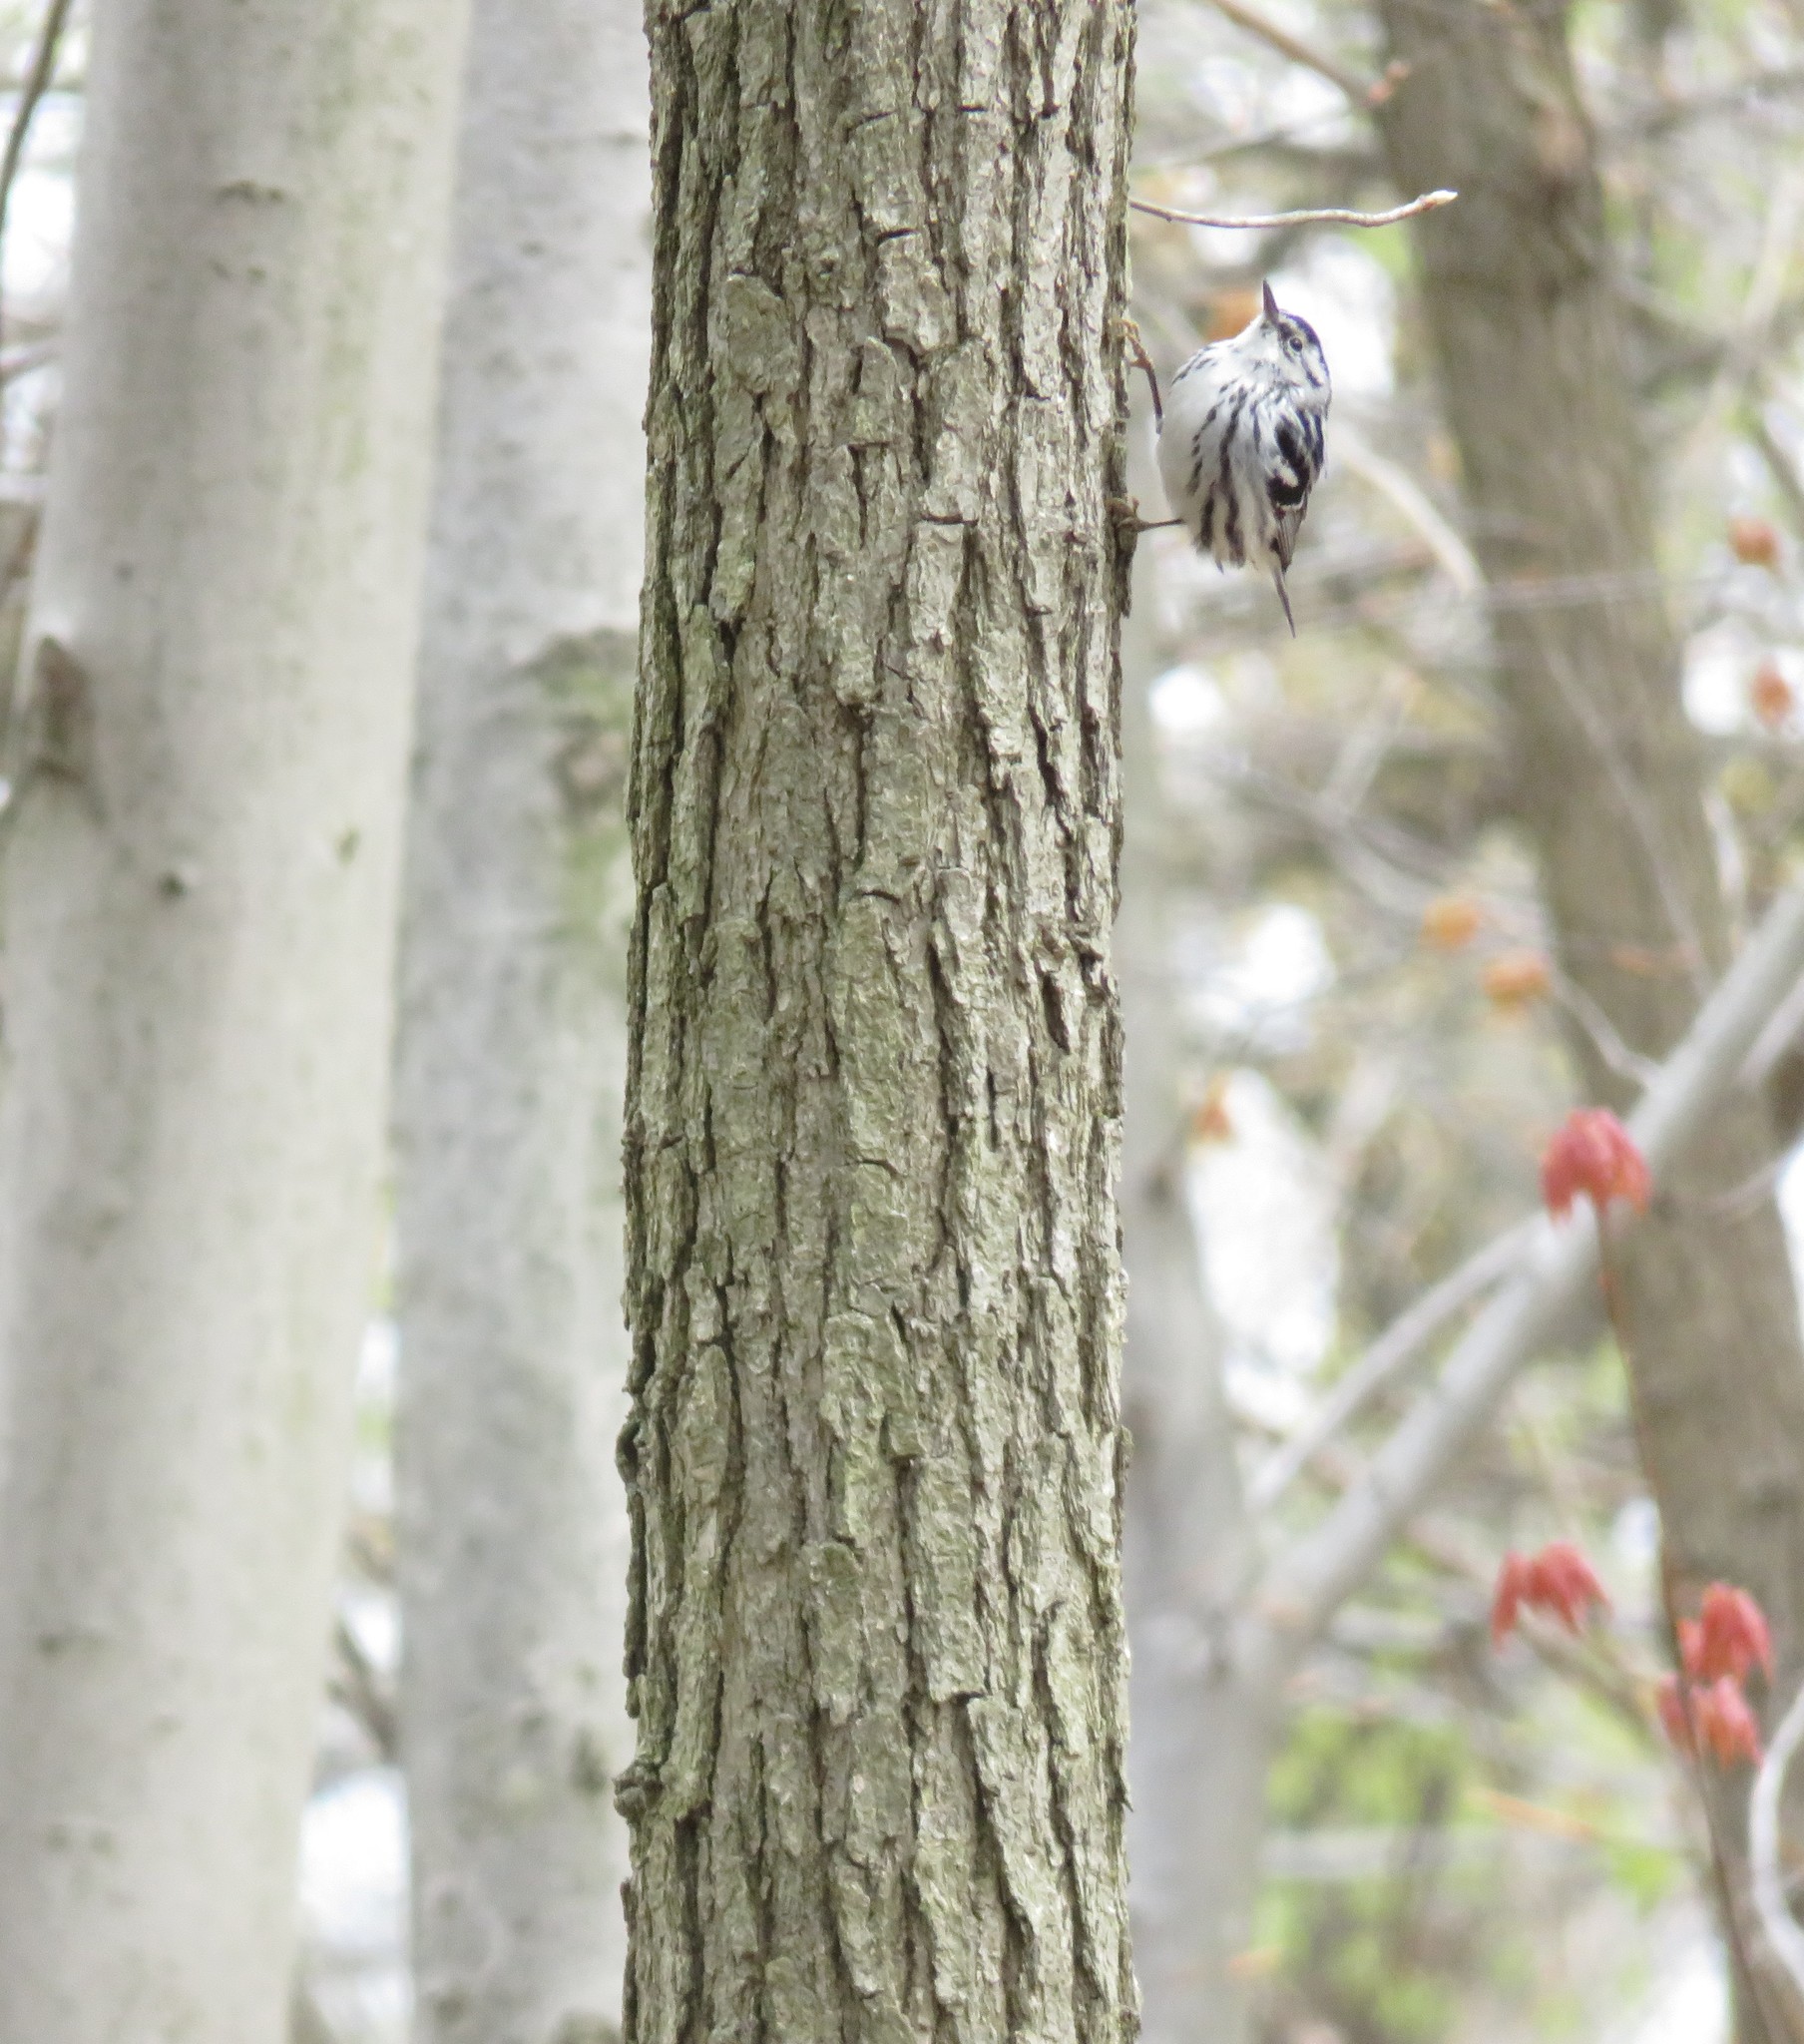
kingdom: Animalia
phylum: Chordata
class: Aves
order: Passeriformes
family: Parulidae
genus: Mniotilta
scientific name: Mniotilta varia
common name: Black-and-white warbler
